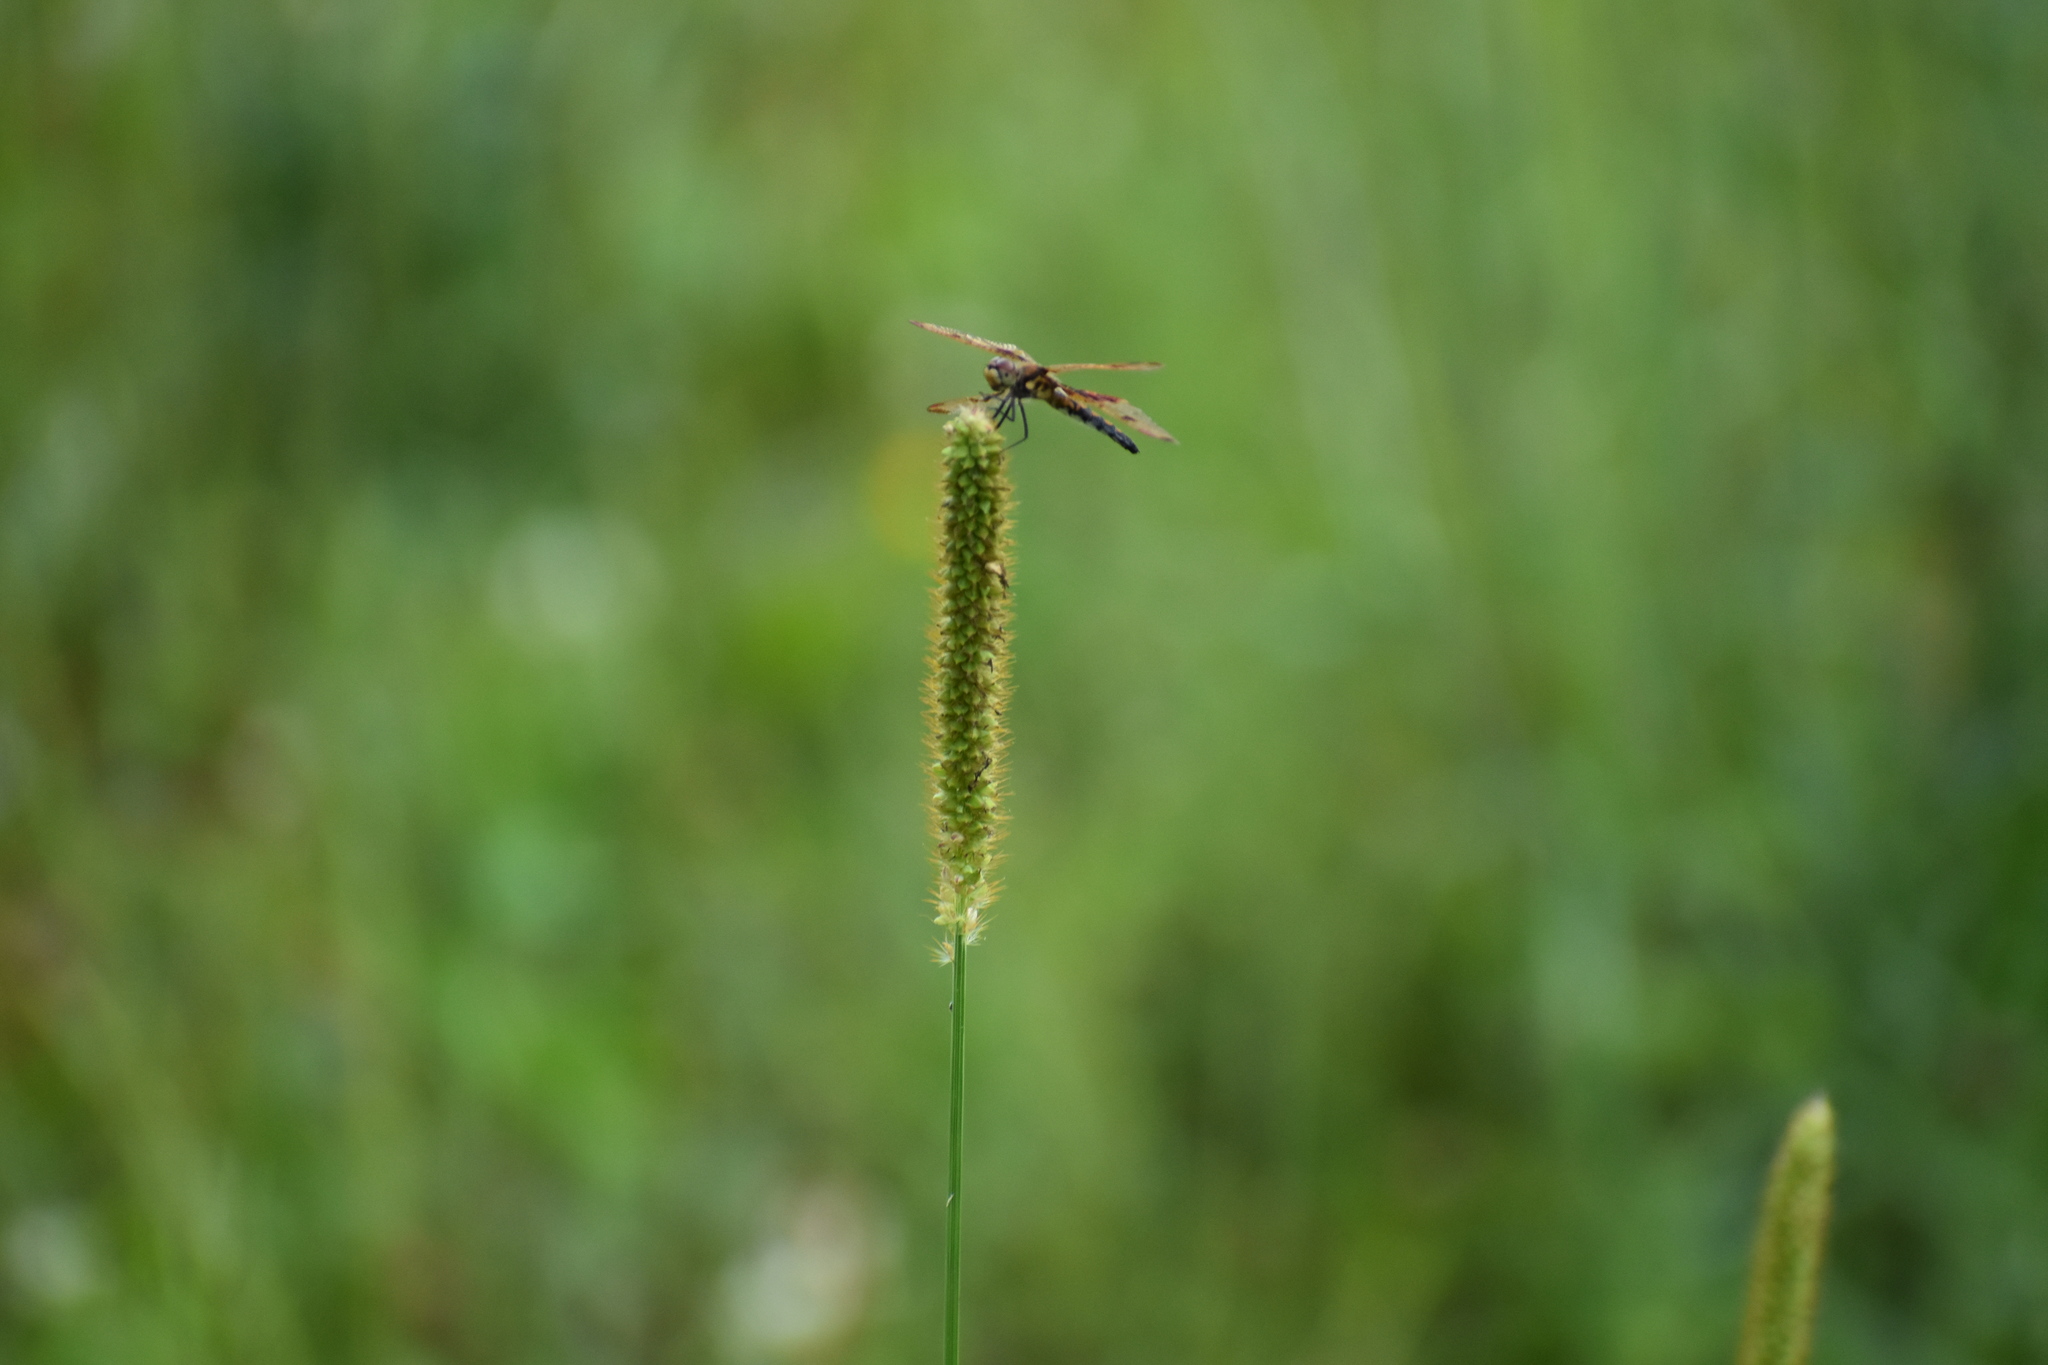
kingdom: Animalia
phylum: Arthropoda
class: Insecta
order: Odonata
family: Libellulidae
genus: Celithemis
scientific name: Celithemis elisa
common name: Calico pennant
